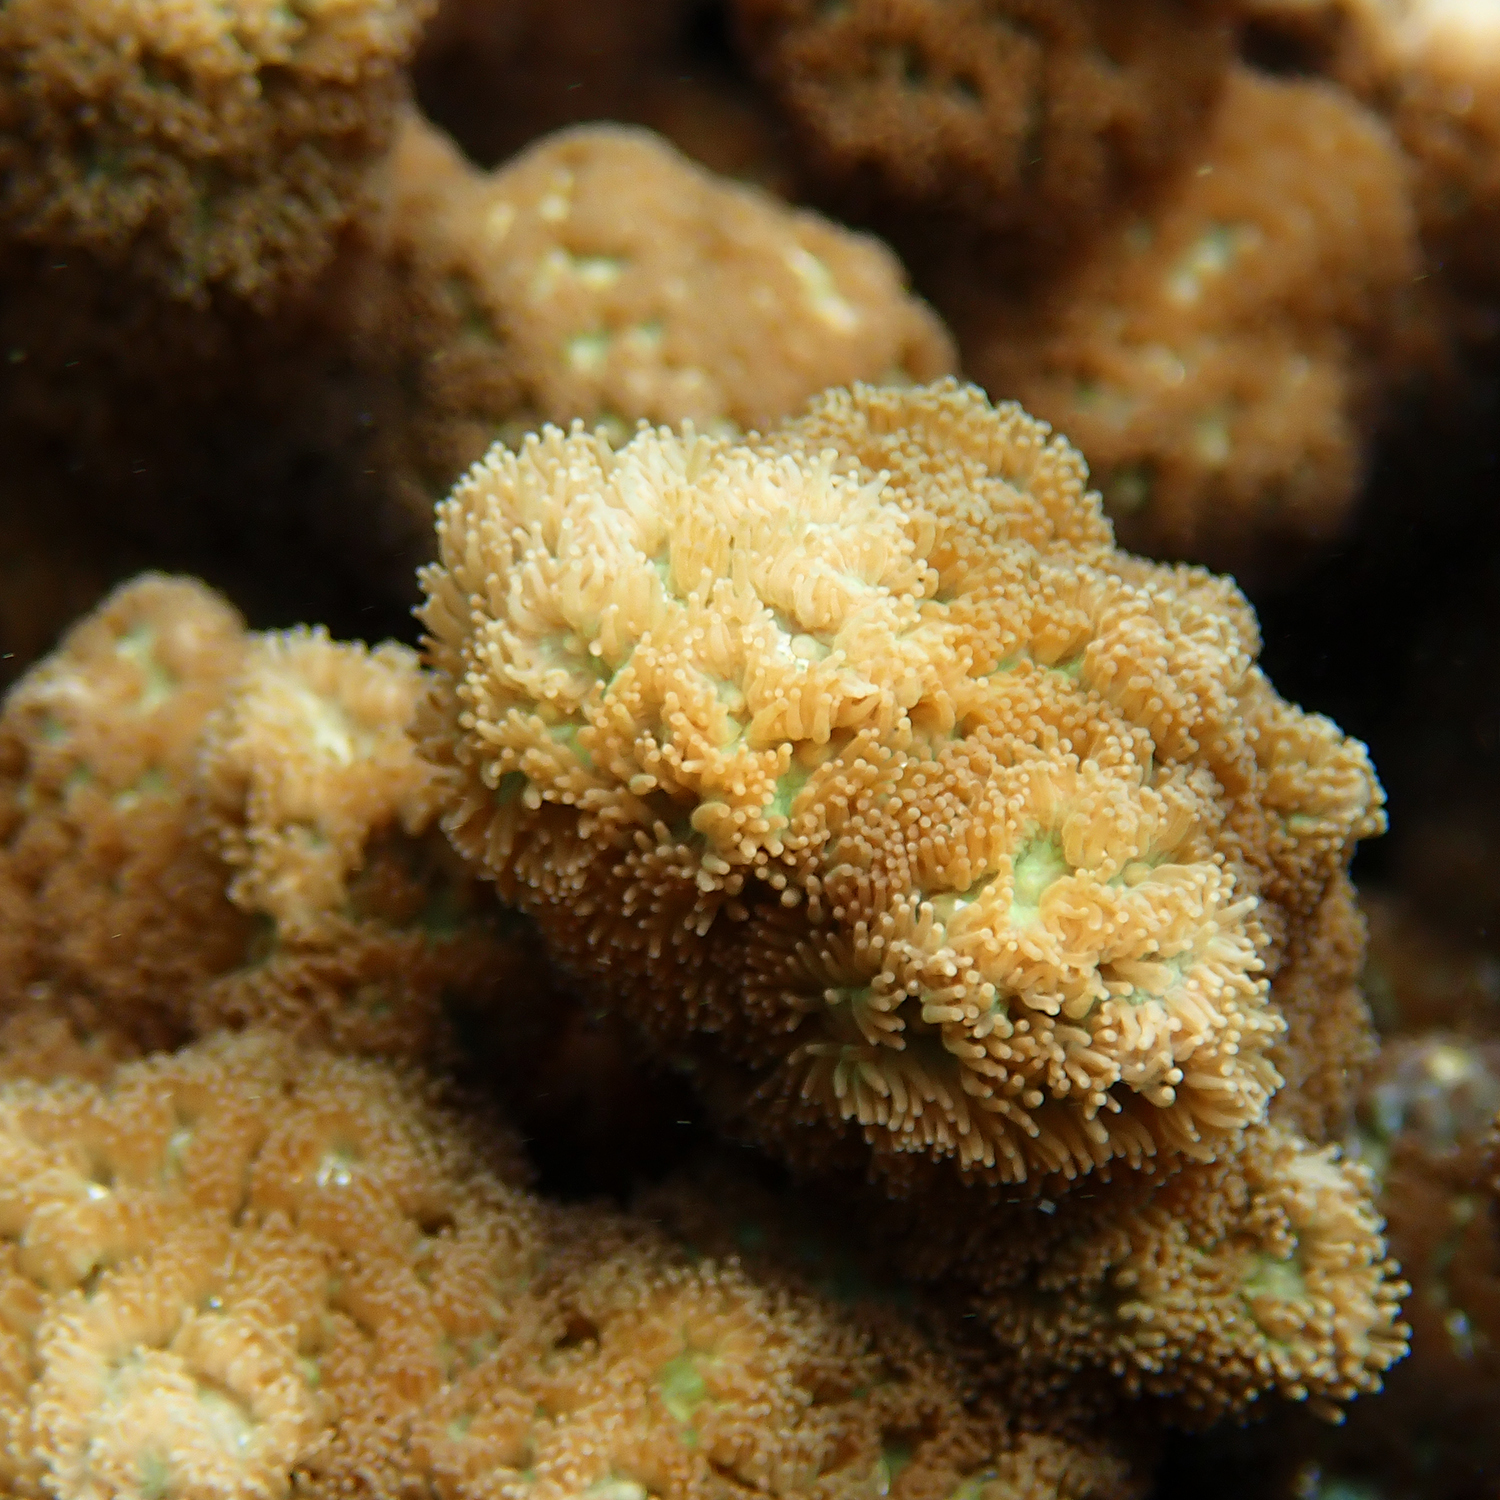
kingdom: Animalia
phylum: Cnidaria
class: Anthozoa
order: Scleractinia
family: Merulinidae
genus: Hydnophora
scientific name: Hydnophora pilosa
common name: Spine coral
